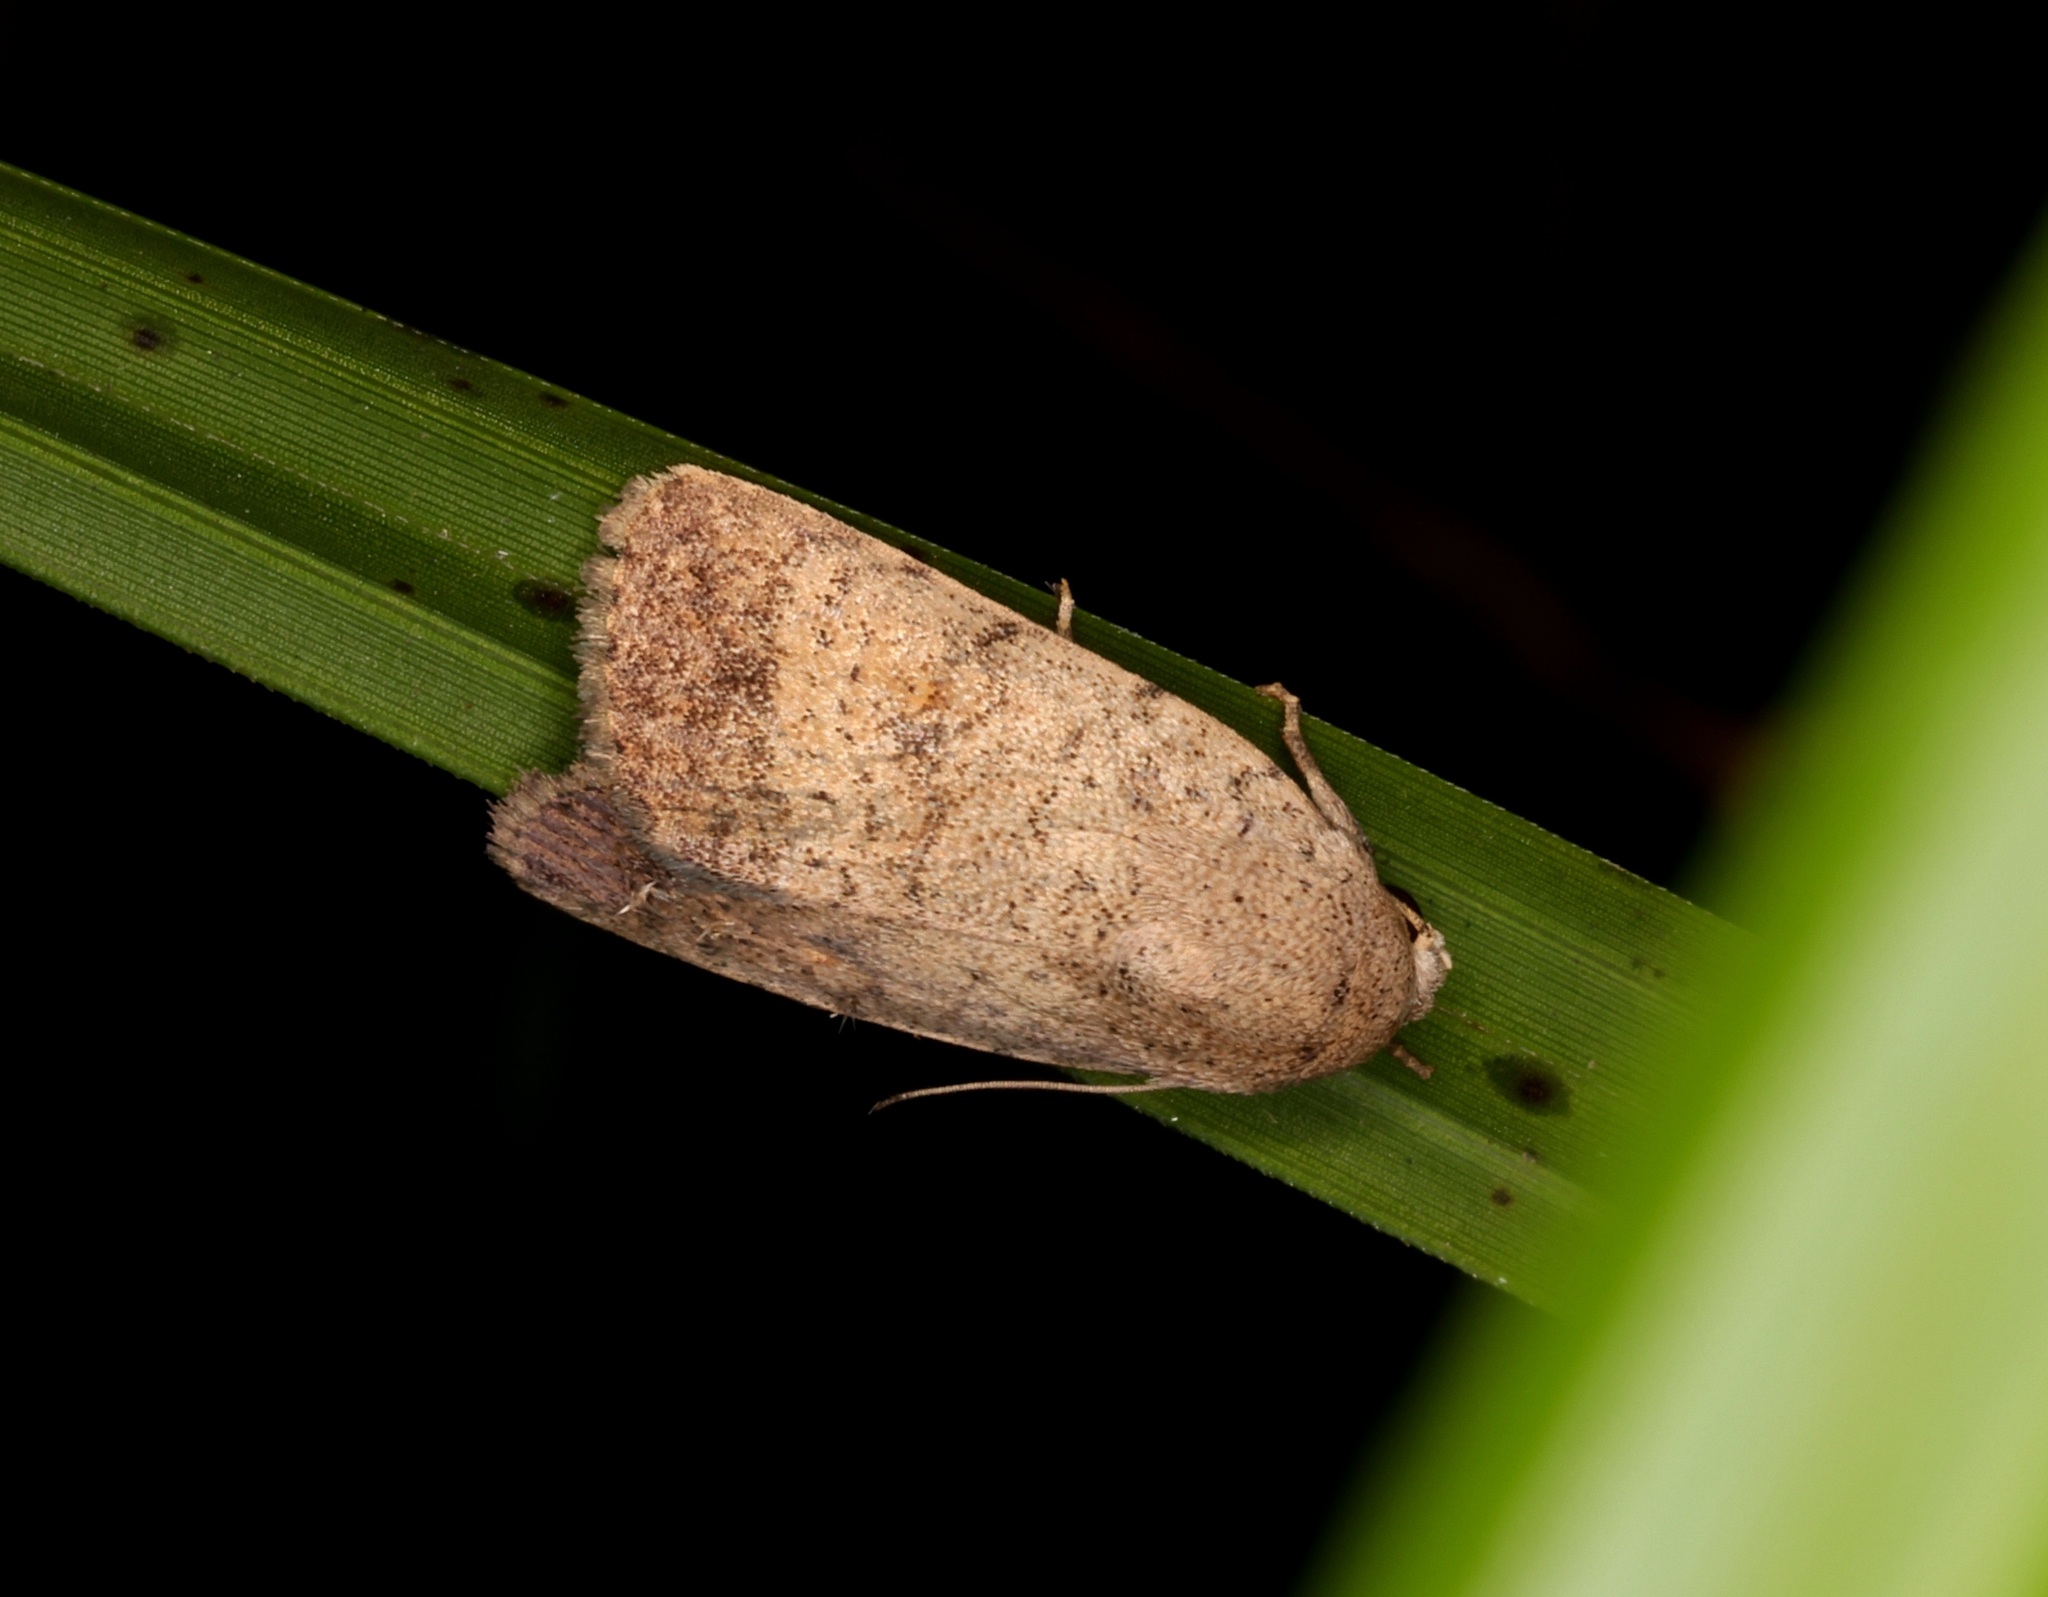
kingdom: Animalia
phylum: Arthropoda
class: Insecta
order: Lepidoptera
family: Noctuidae
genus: Athetis
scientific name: Athetis bremusa
